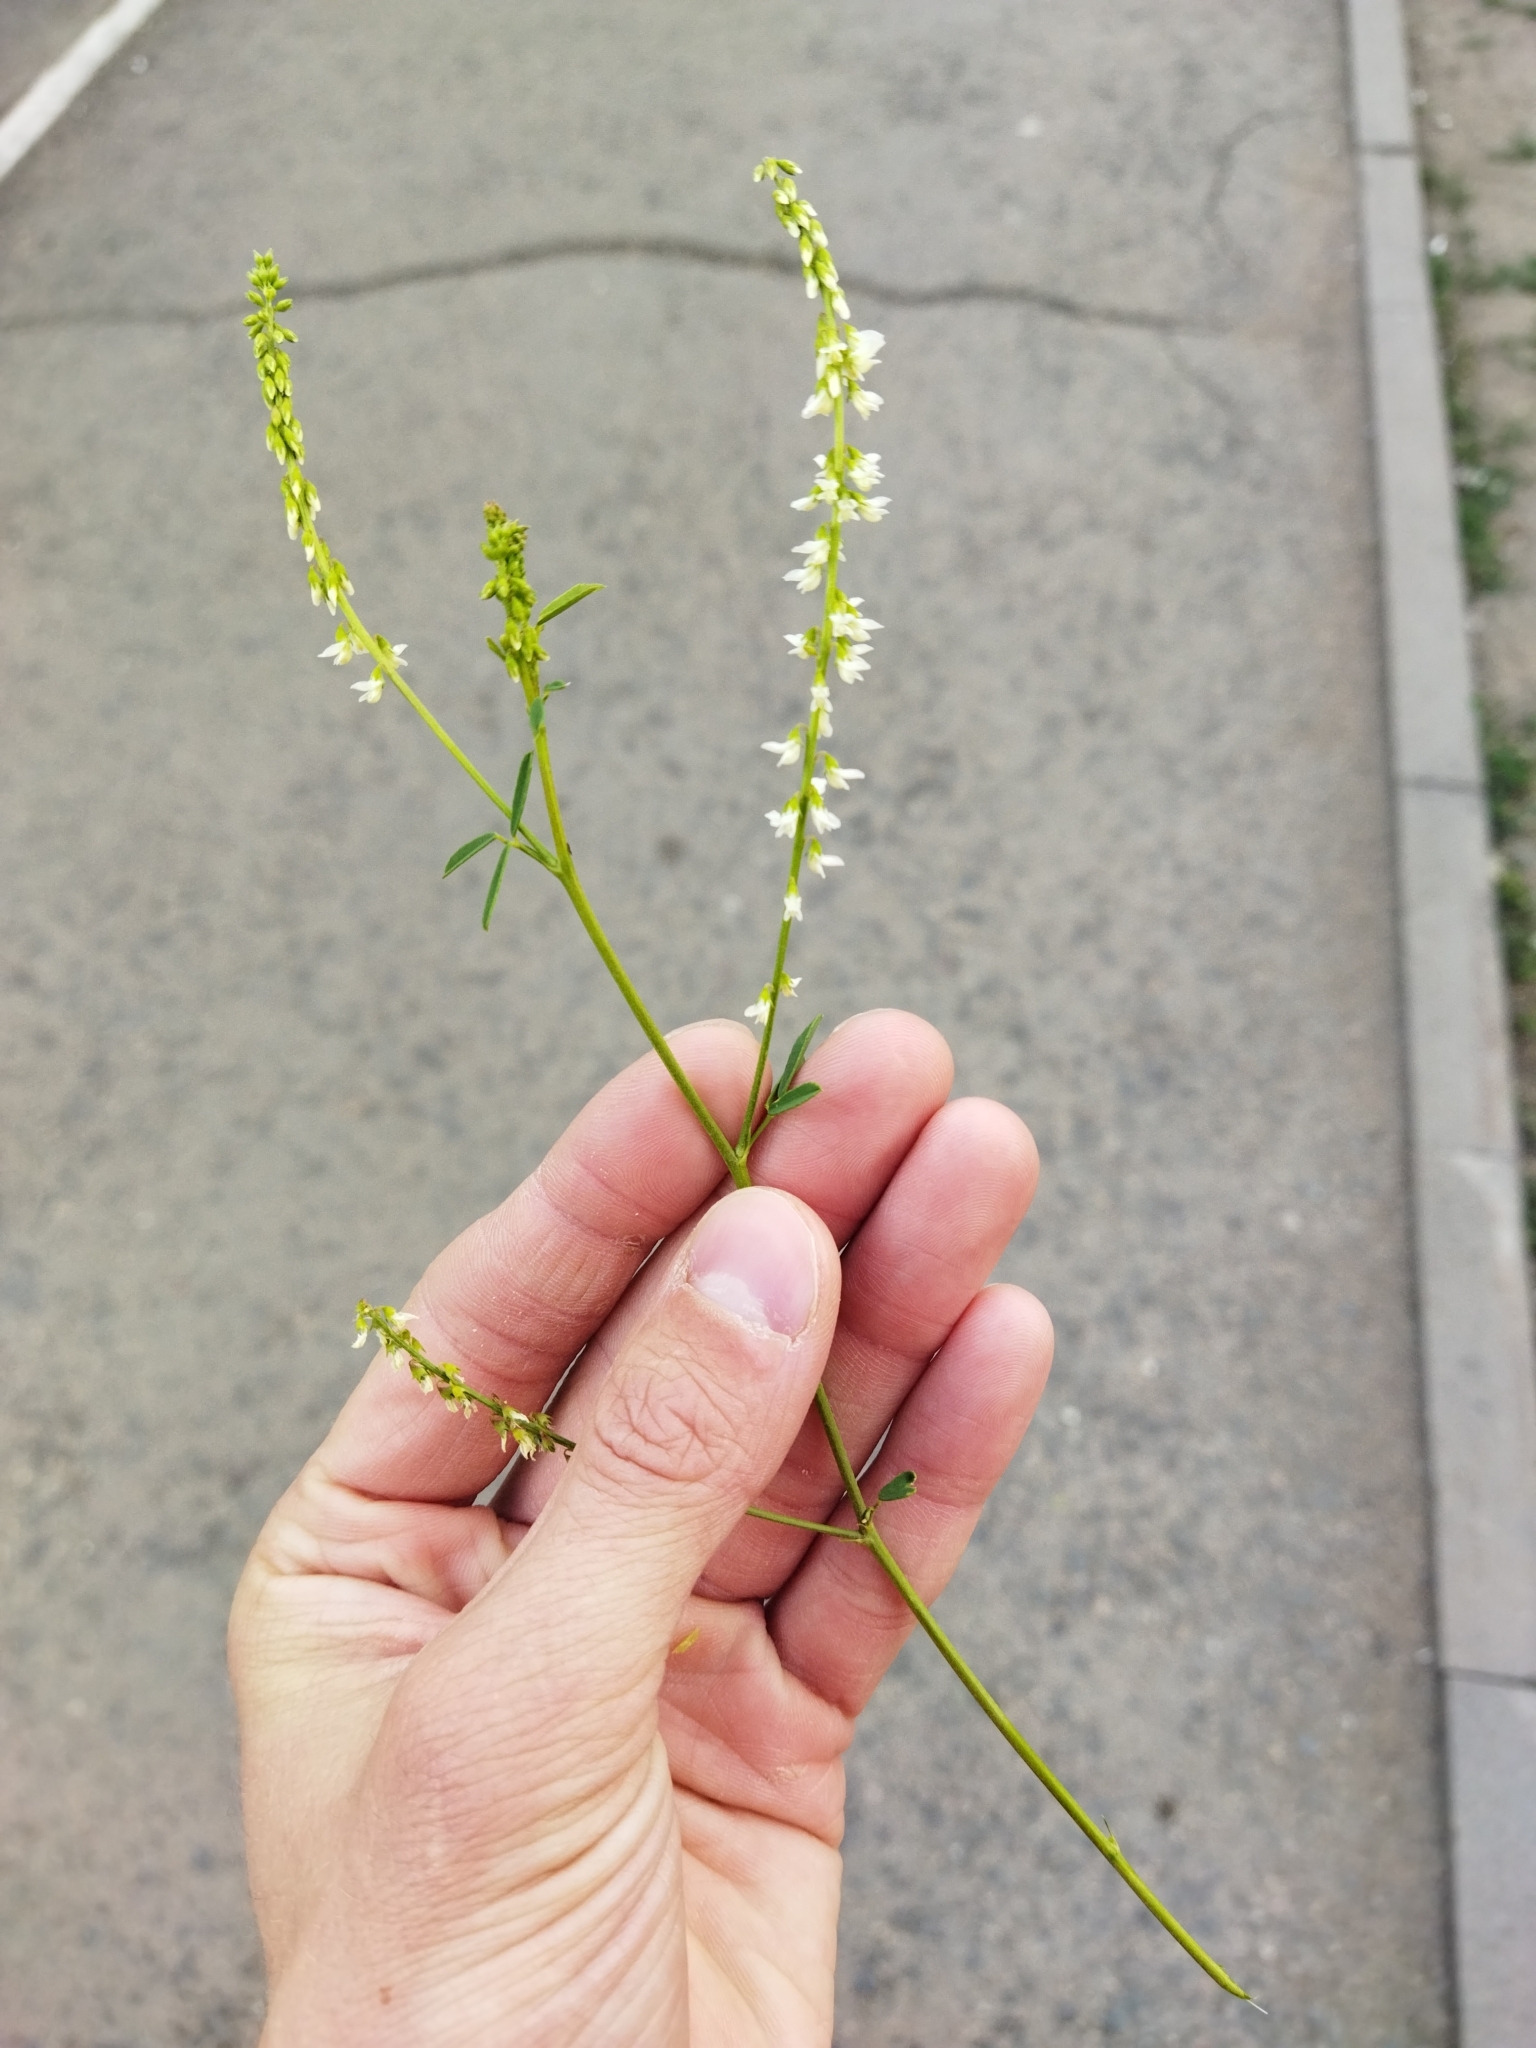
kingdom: Plantae
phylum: Tracheophyta
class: Magnoliopsida
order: Fabales
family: Fabaceae
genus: Melilotus
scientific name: Melilotus albus
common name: White melilot
